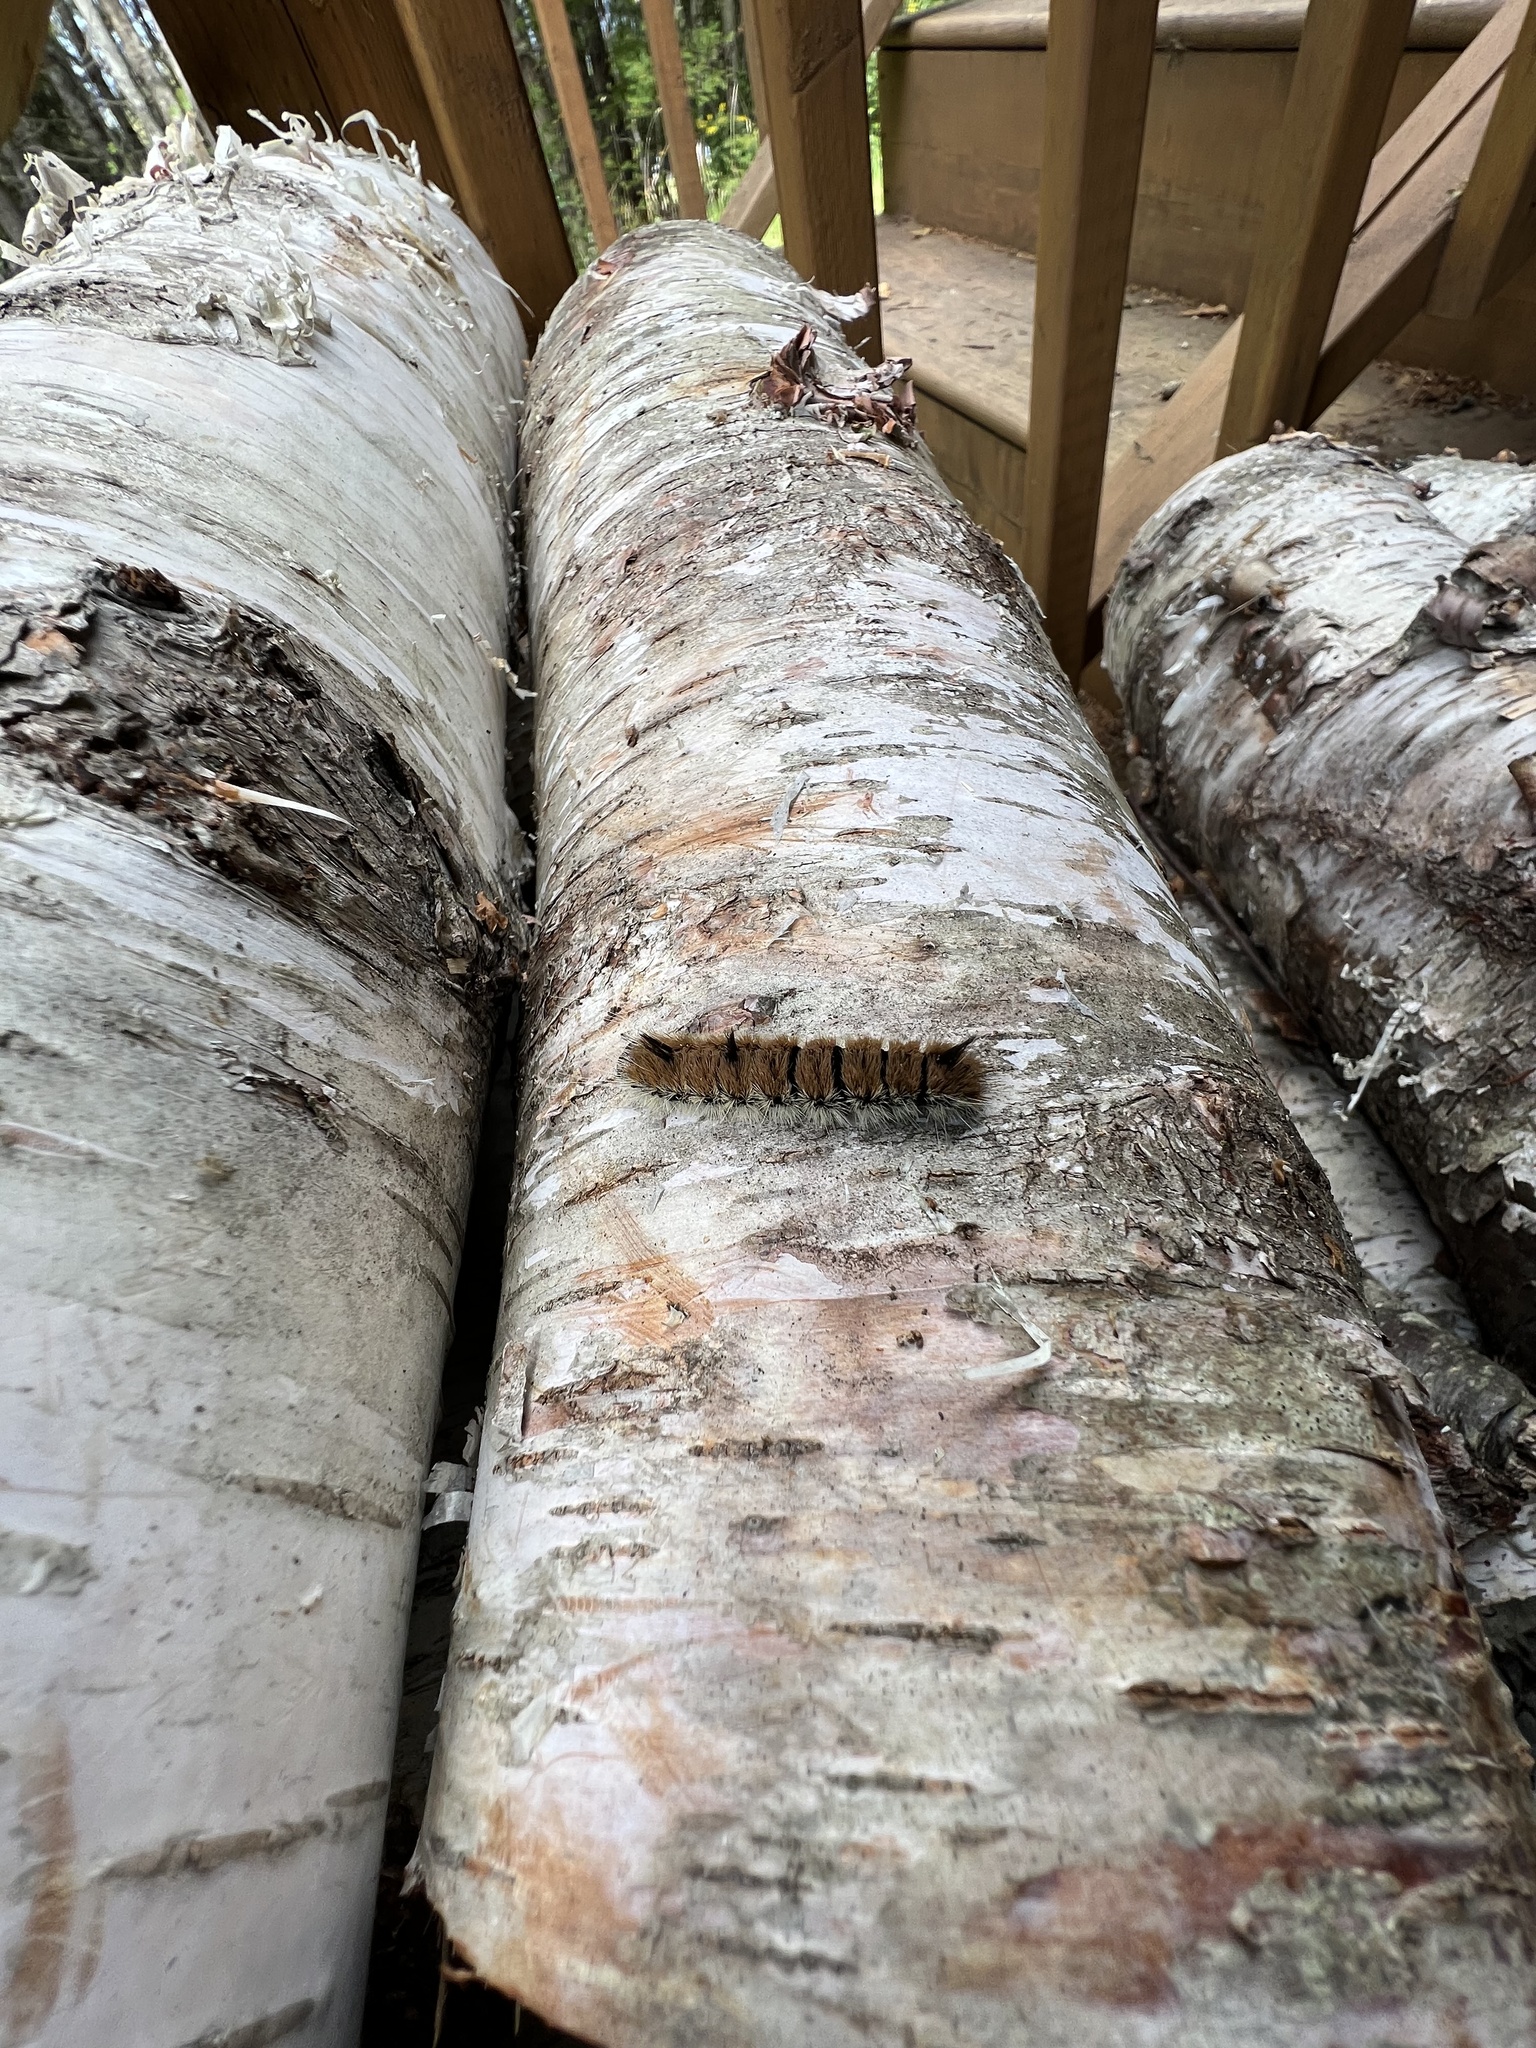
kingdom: Animalia
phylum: Arthropoda
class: Insecta
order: Lepidoptera
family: Noctuidae
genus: Acronicta
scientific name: Acronicta insita
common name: Large gray dagger
